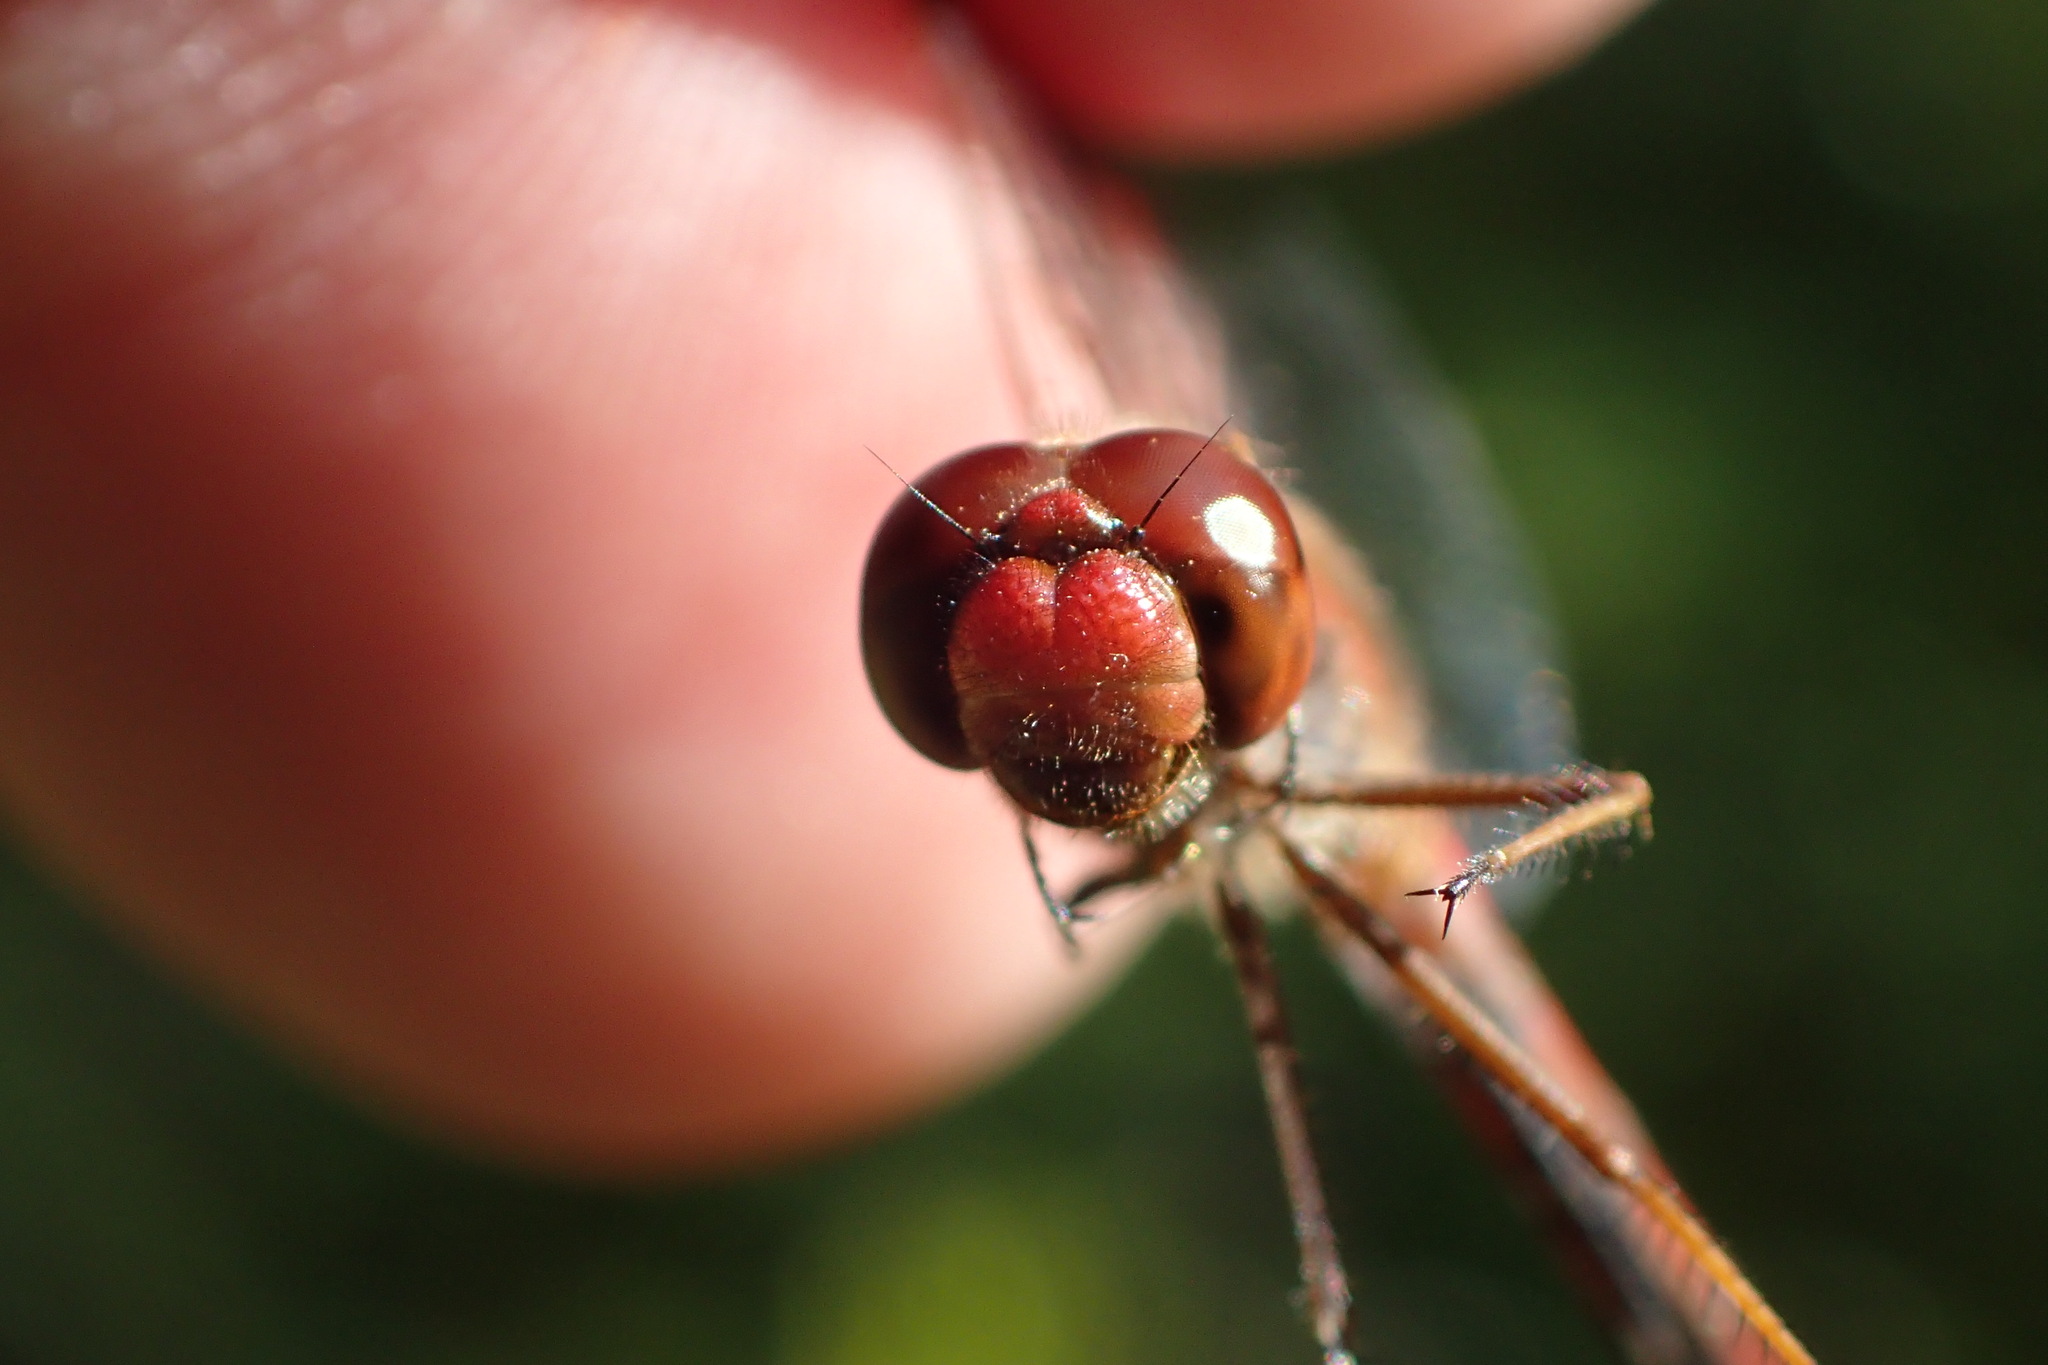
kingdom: Animalia
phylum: Arthropoda
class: Insecta
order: Odonata
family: Libellulidae
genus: Sympetrum
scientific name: Sympetrum vicinum
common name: Autumn meadowhawk
